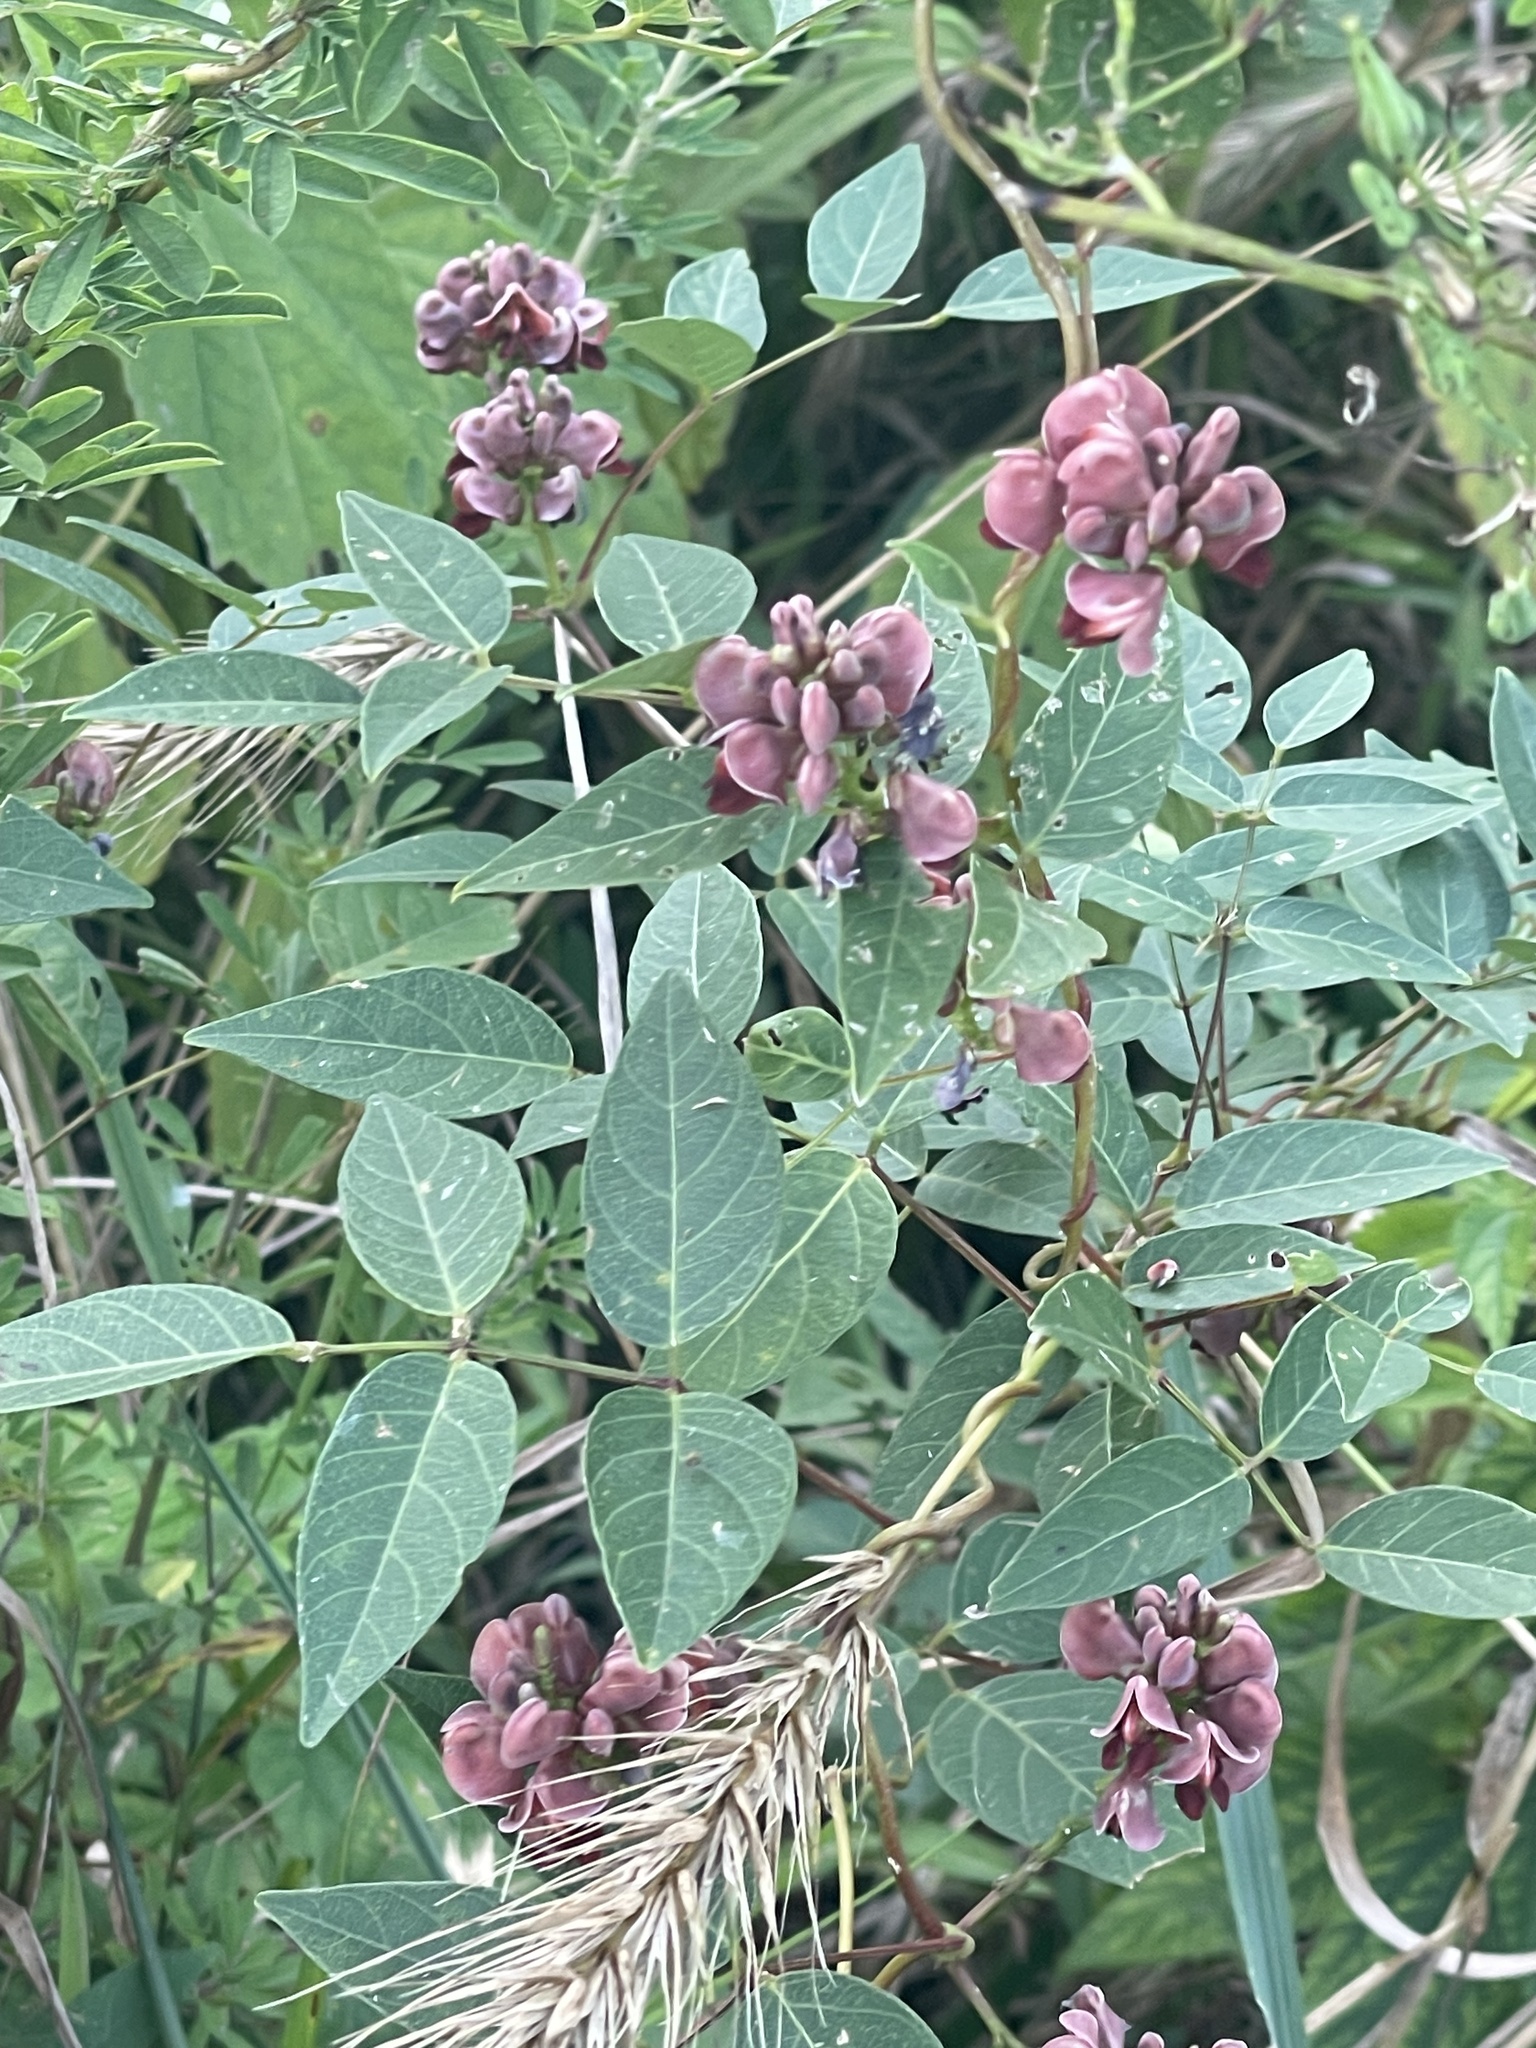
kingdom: Plantae
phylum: Tracheophyta
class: Magnoliopsida
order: Fabales
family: Fabaceae
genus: Apios
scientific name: Apios americana
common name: American potato-bean
